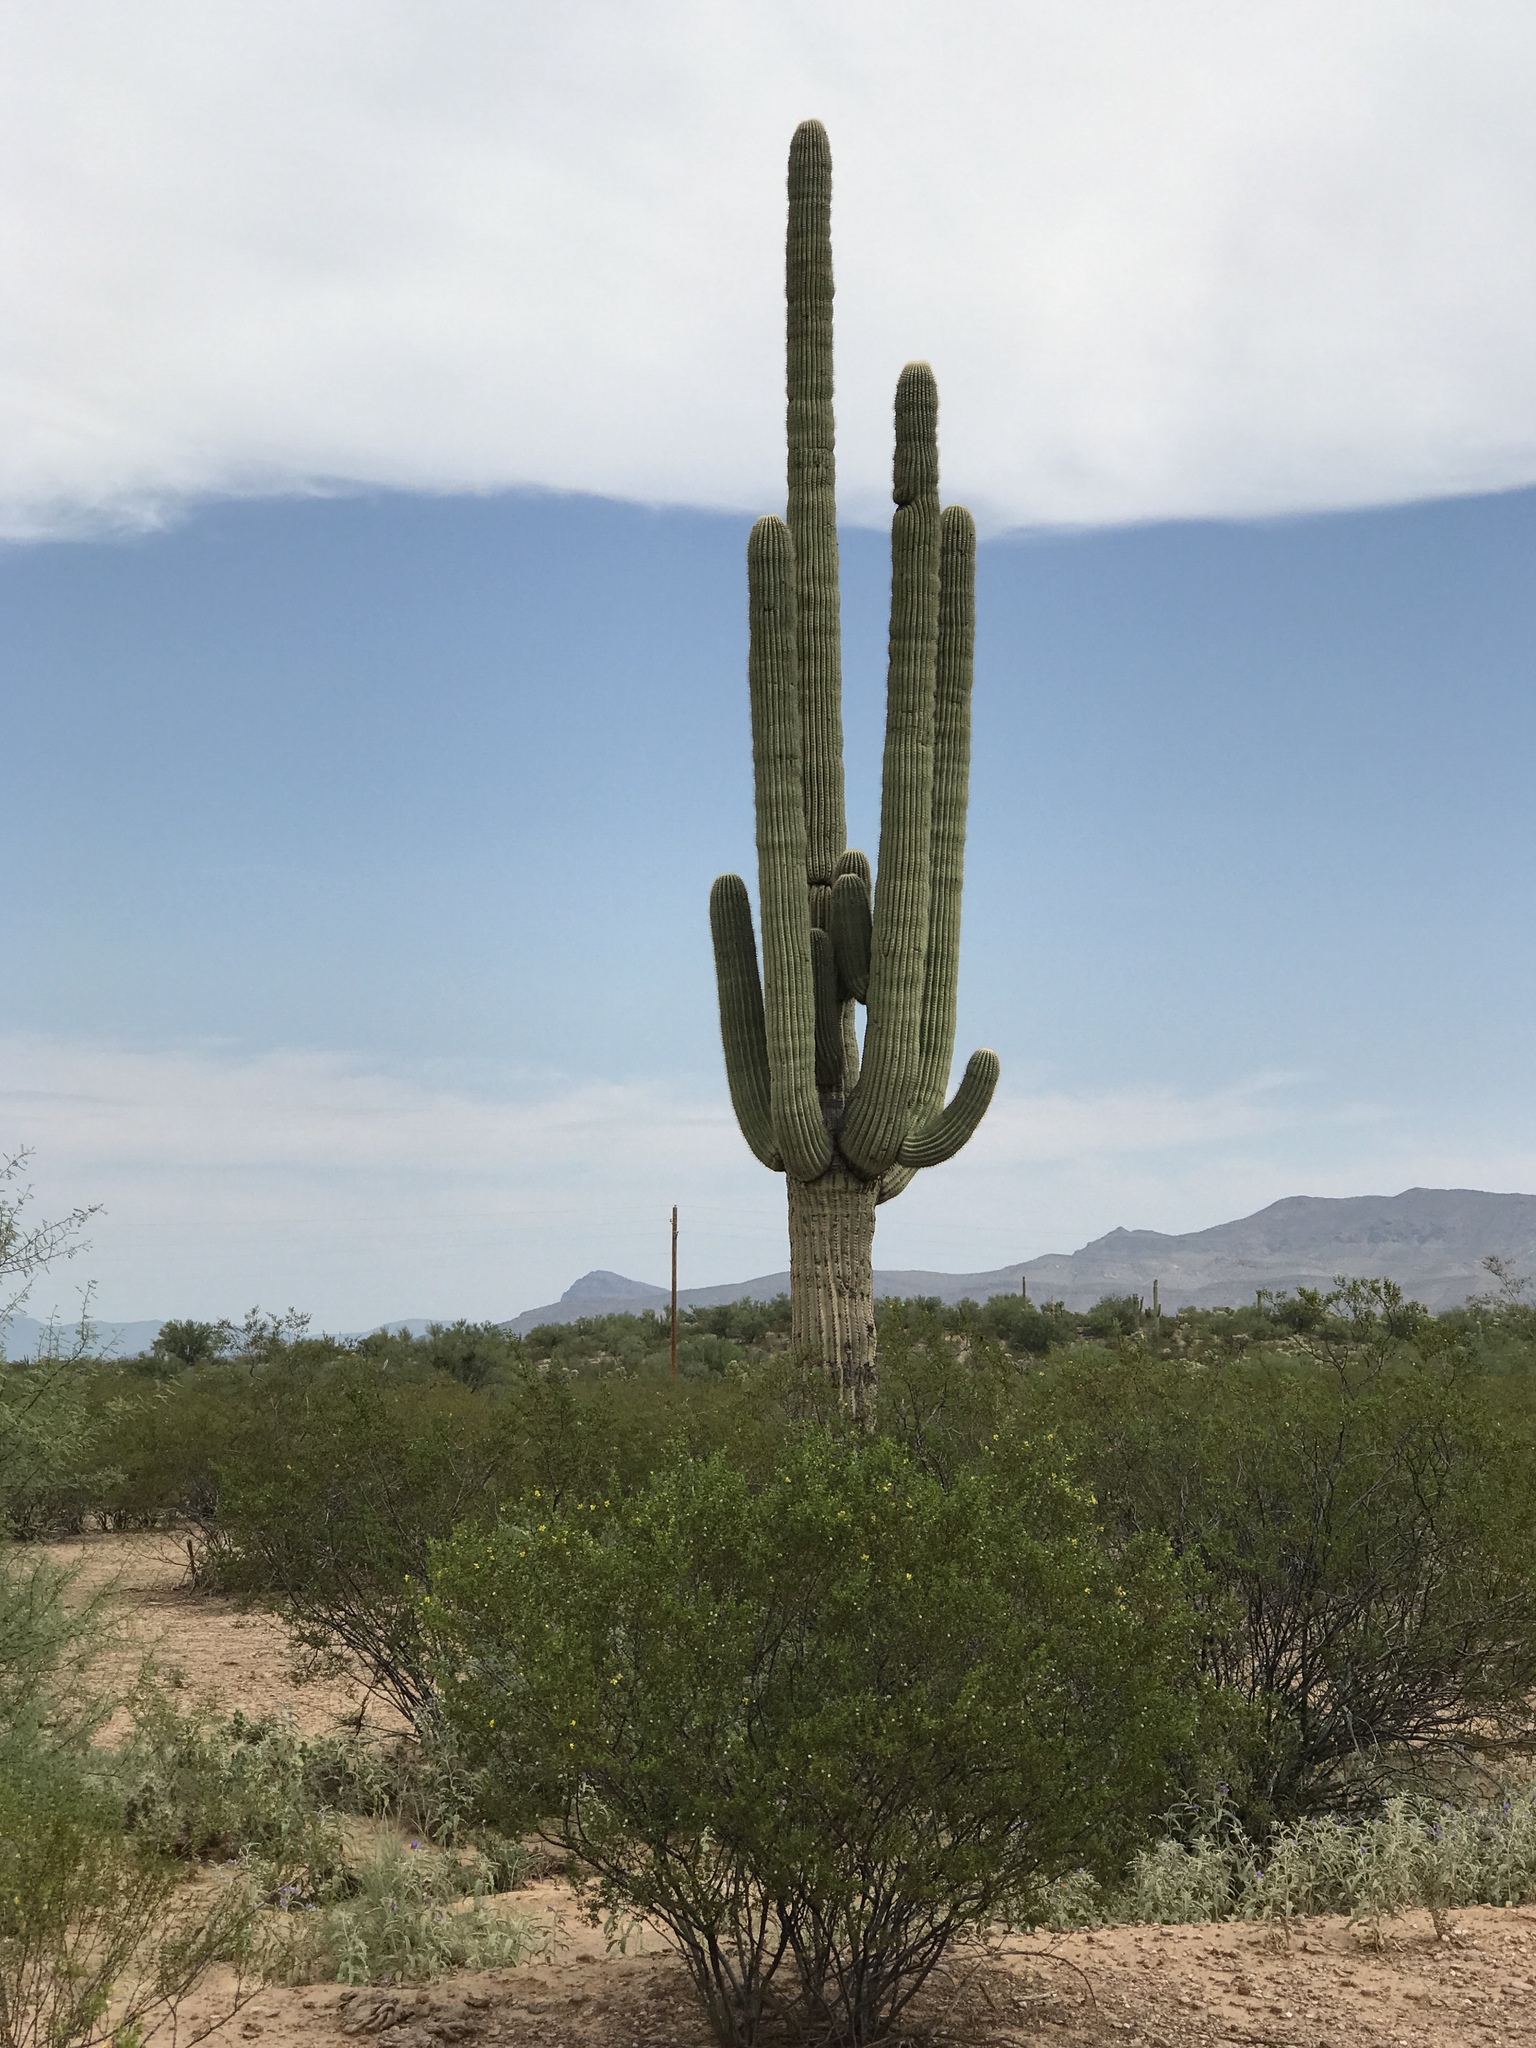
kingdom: Plantae
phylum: Tracheophyta
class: Magnoliopsida
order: Caryophyllales
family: Cactaceae
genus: Carnegiea
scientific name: Carnegiea gigantea
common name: Saguaro
